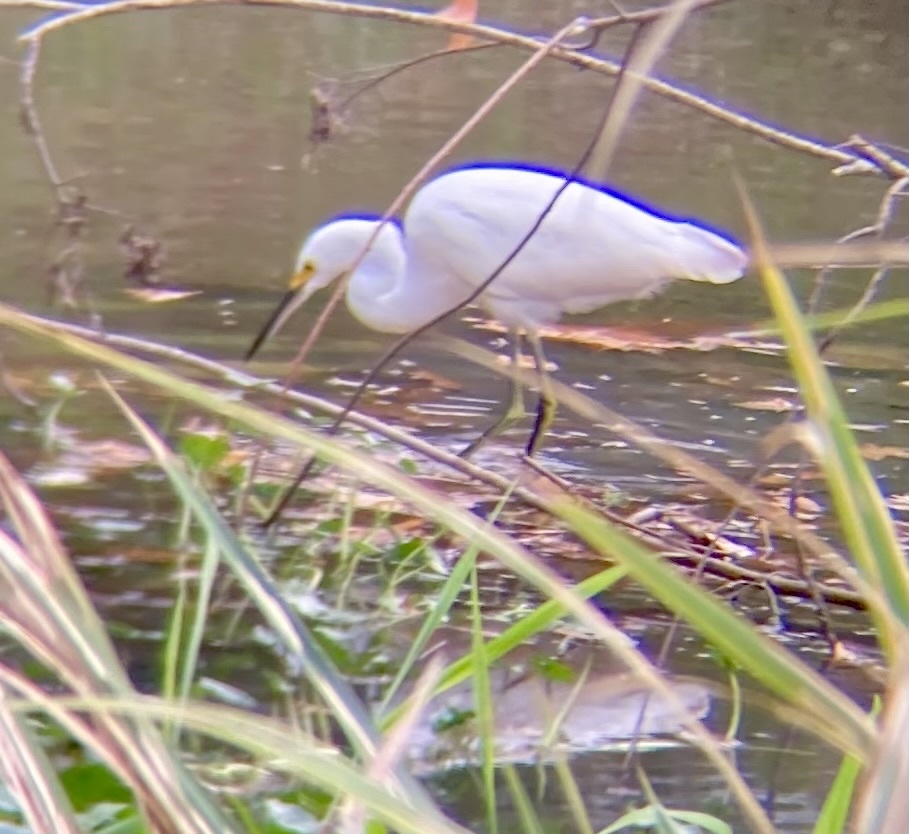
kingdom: Animalia
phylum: Chordata
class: Aves
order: Pelecaniformes
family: Ardeidae
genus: Egretta
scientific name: Egretta thula
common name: Snowy egret
